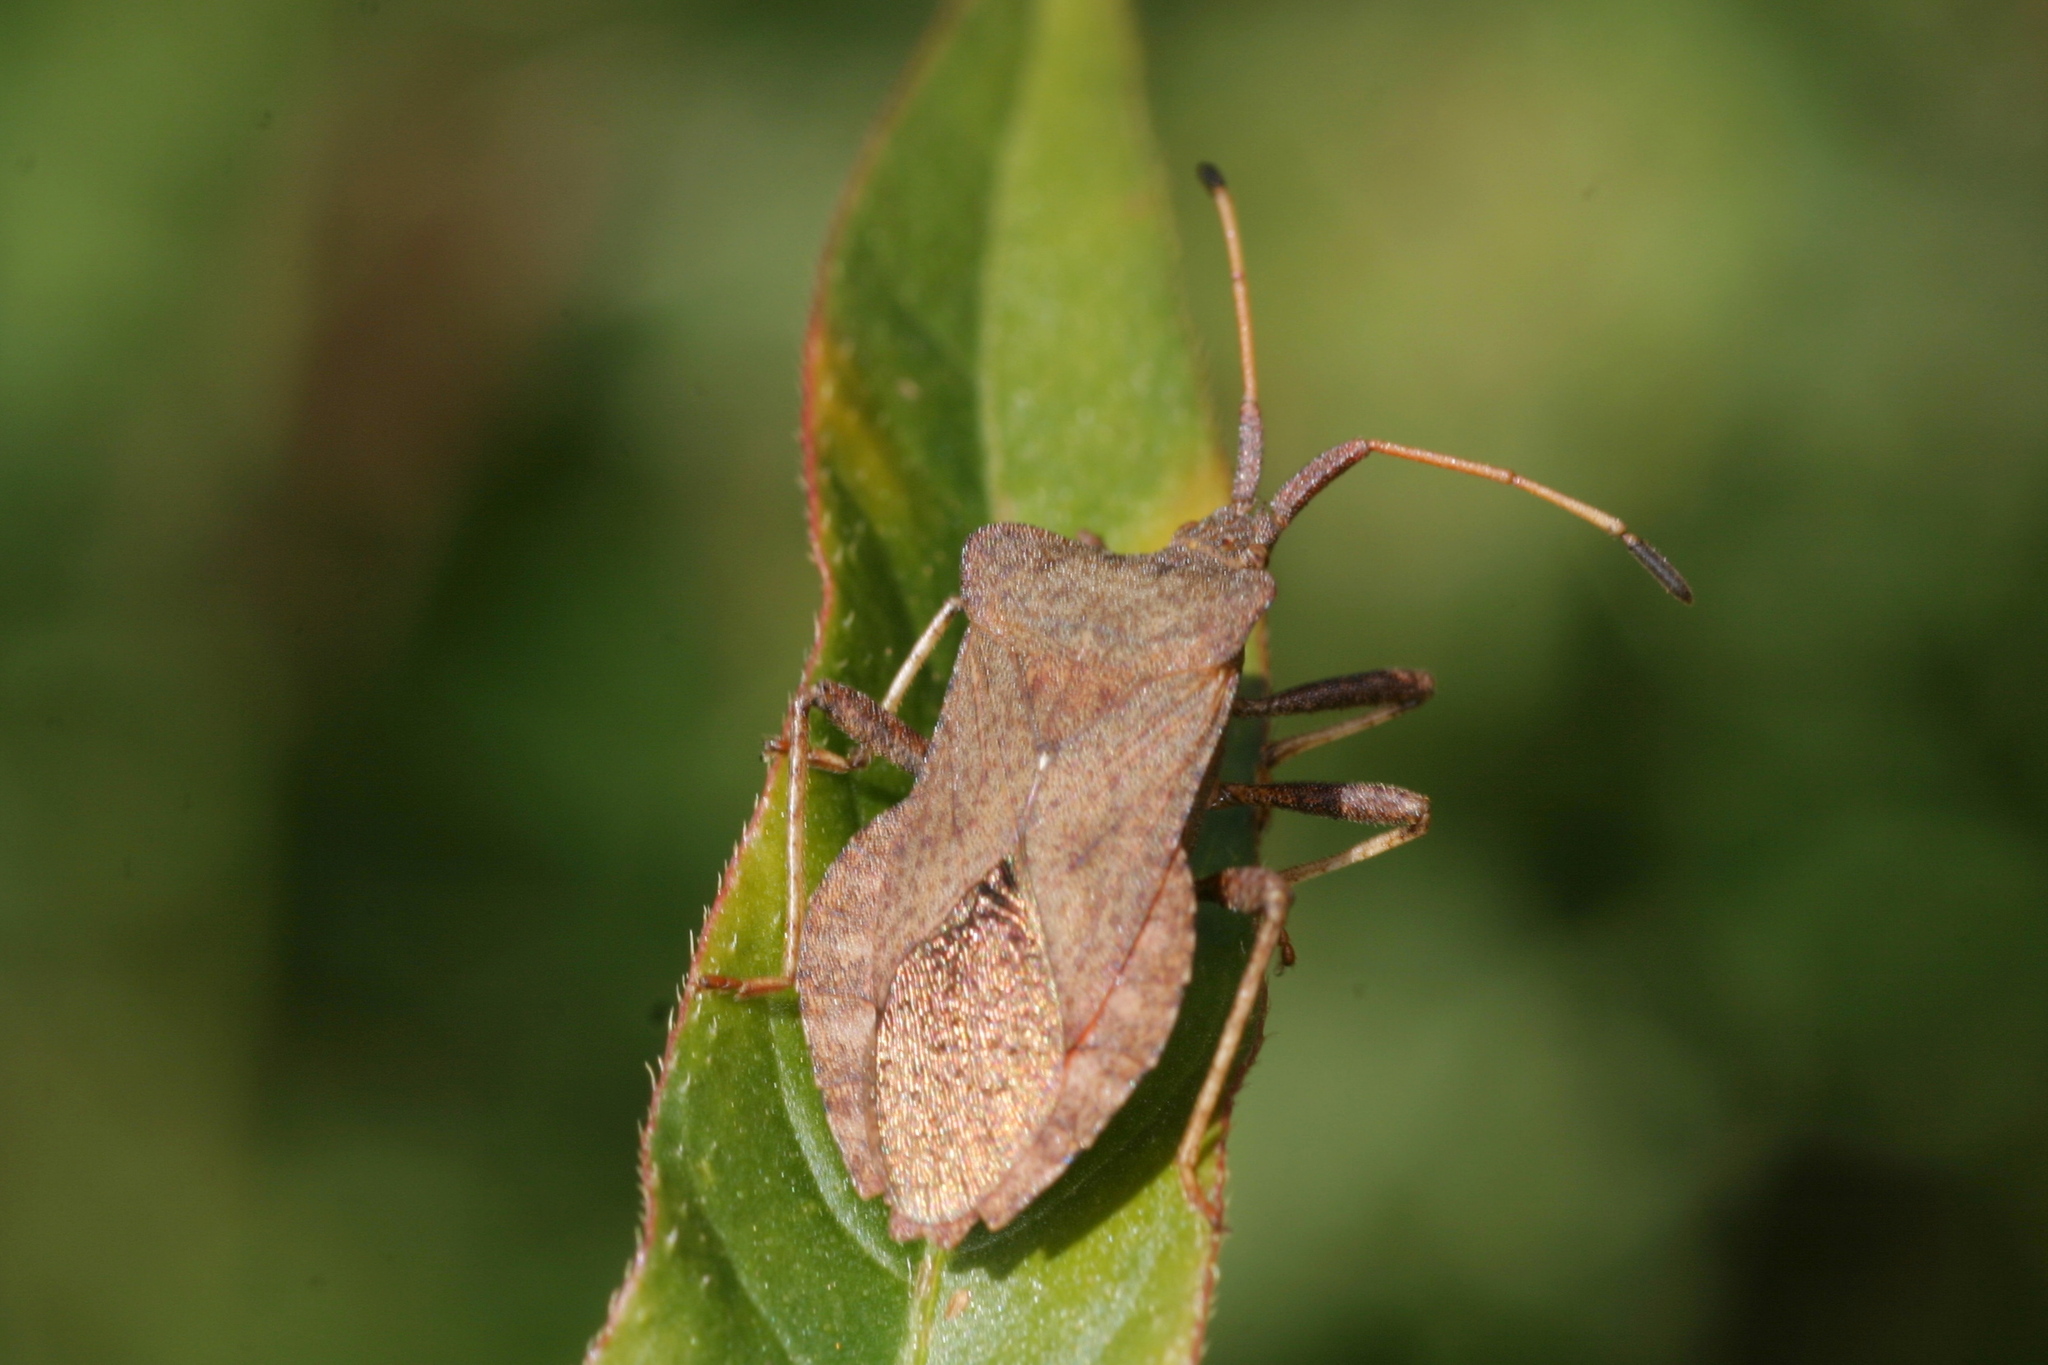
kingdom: Animalia
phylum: Arthropoda
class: Insecta
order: Hemiptera
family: Coreidae
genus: Coreus
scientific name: Coreus marginatus
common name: Dock bug
